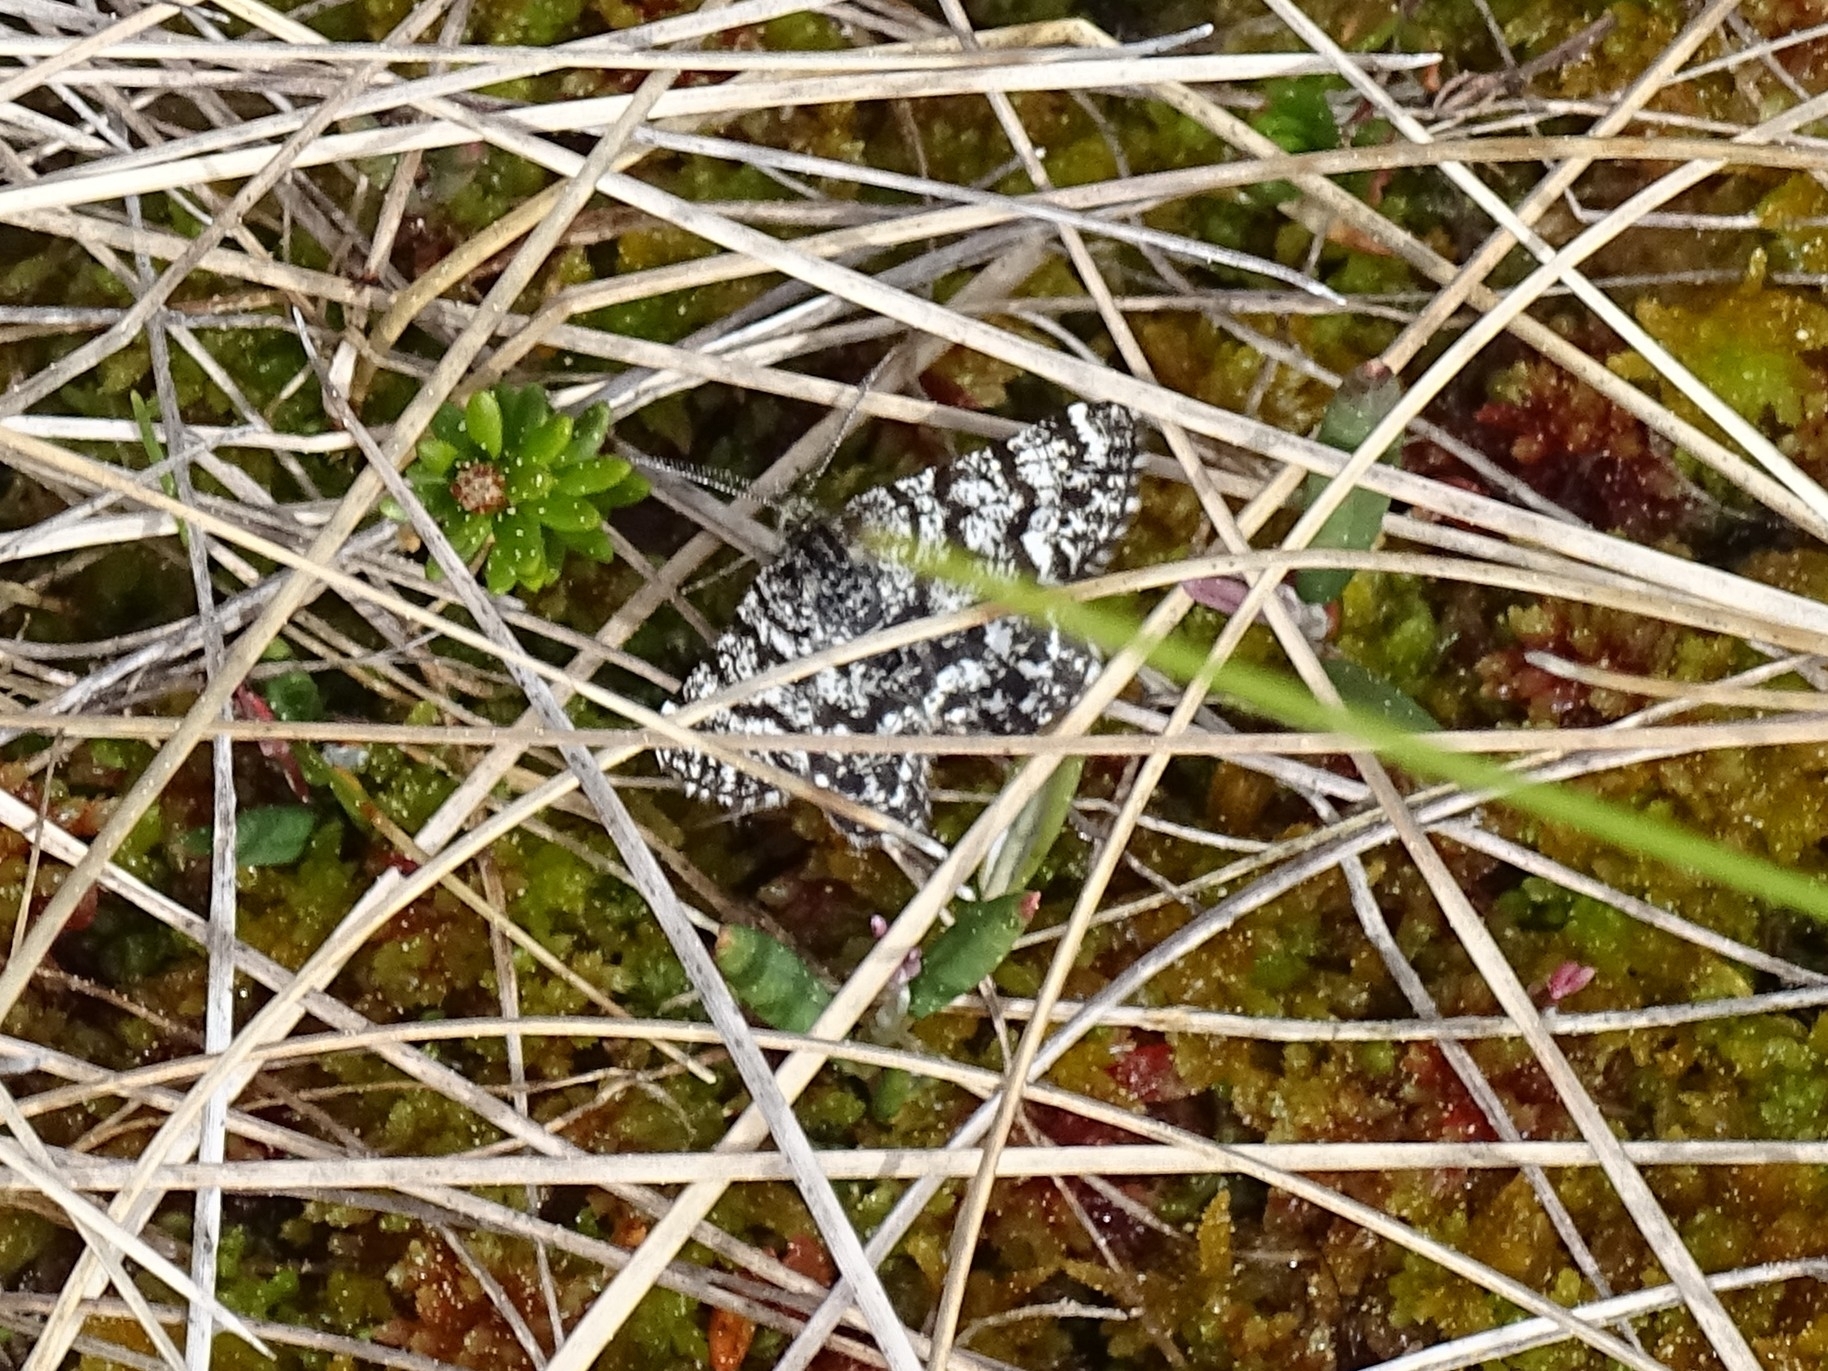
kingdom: Animalia
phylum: Arthropoda
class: Insecta
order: Lepidoptera
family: Geometridae
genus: Macaria
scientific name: Macaria carbonaria
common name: Netted mountain moth
